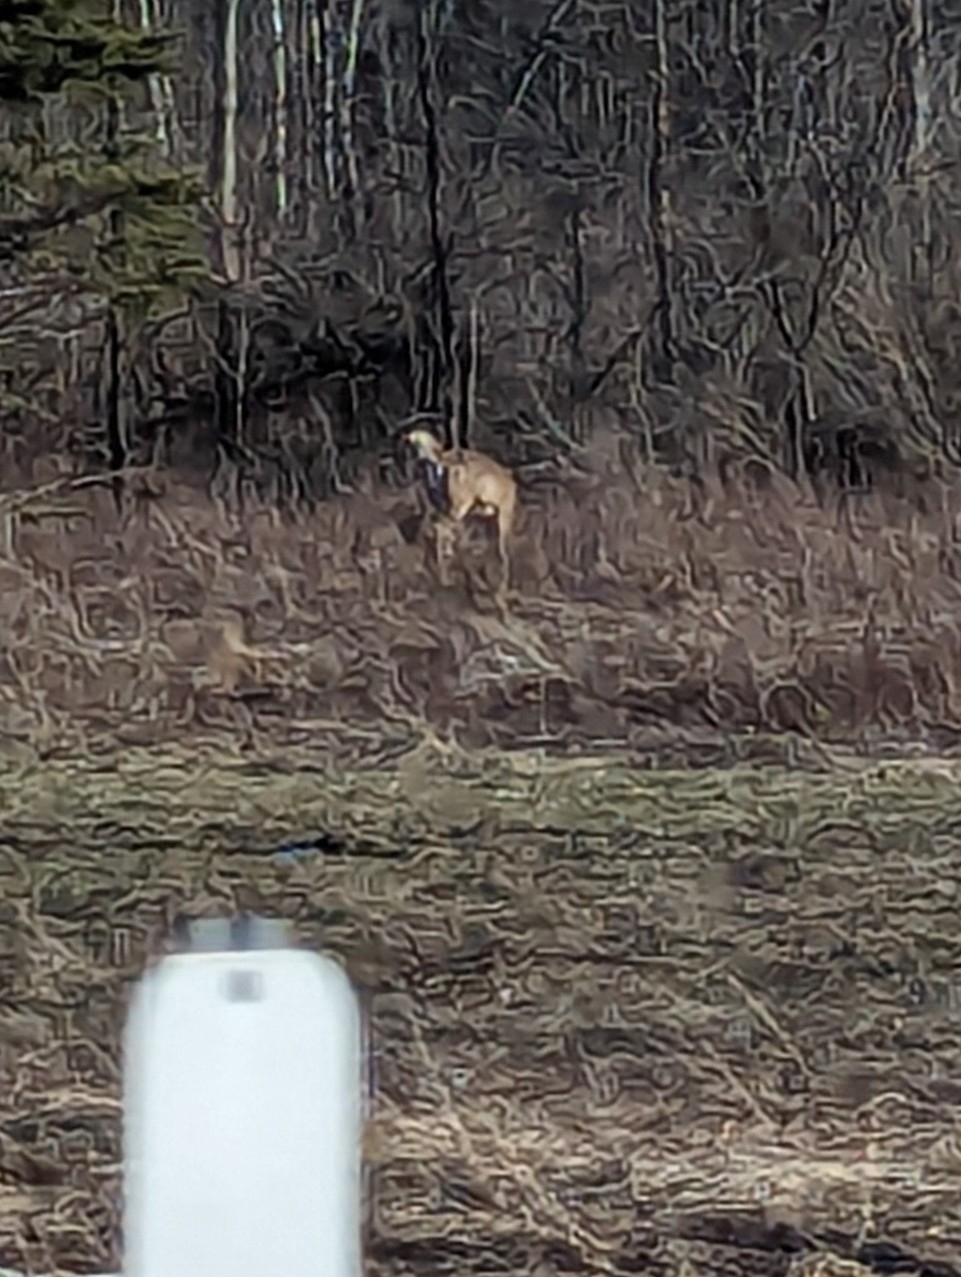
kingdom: Animalia
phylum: Chordata
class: Mammalia
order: Artiodactyla
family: Cervidae
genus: Odocoileus
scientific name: Odocoileus virginianus
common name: White-tailed deer
